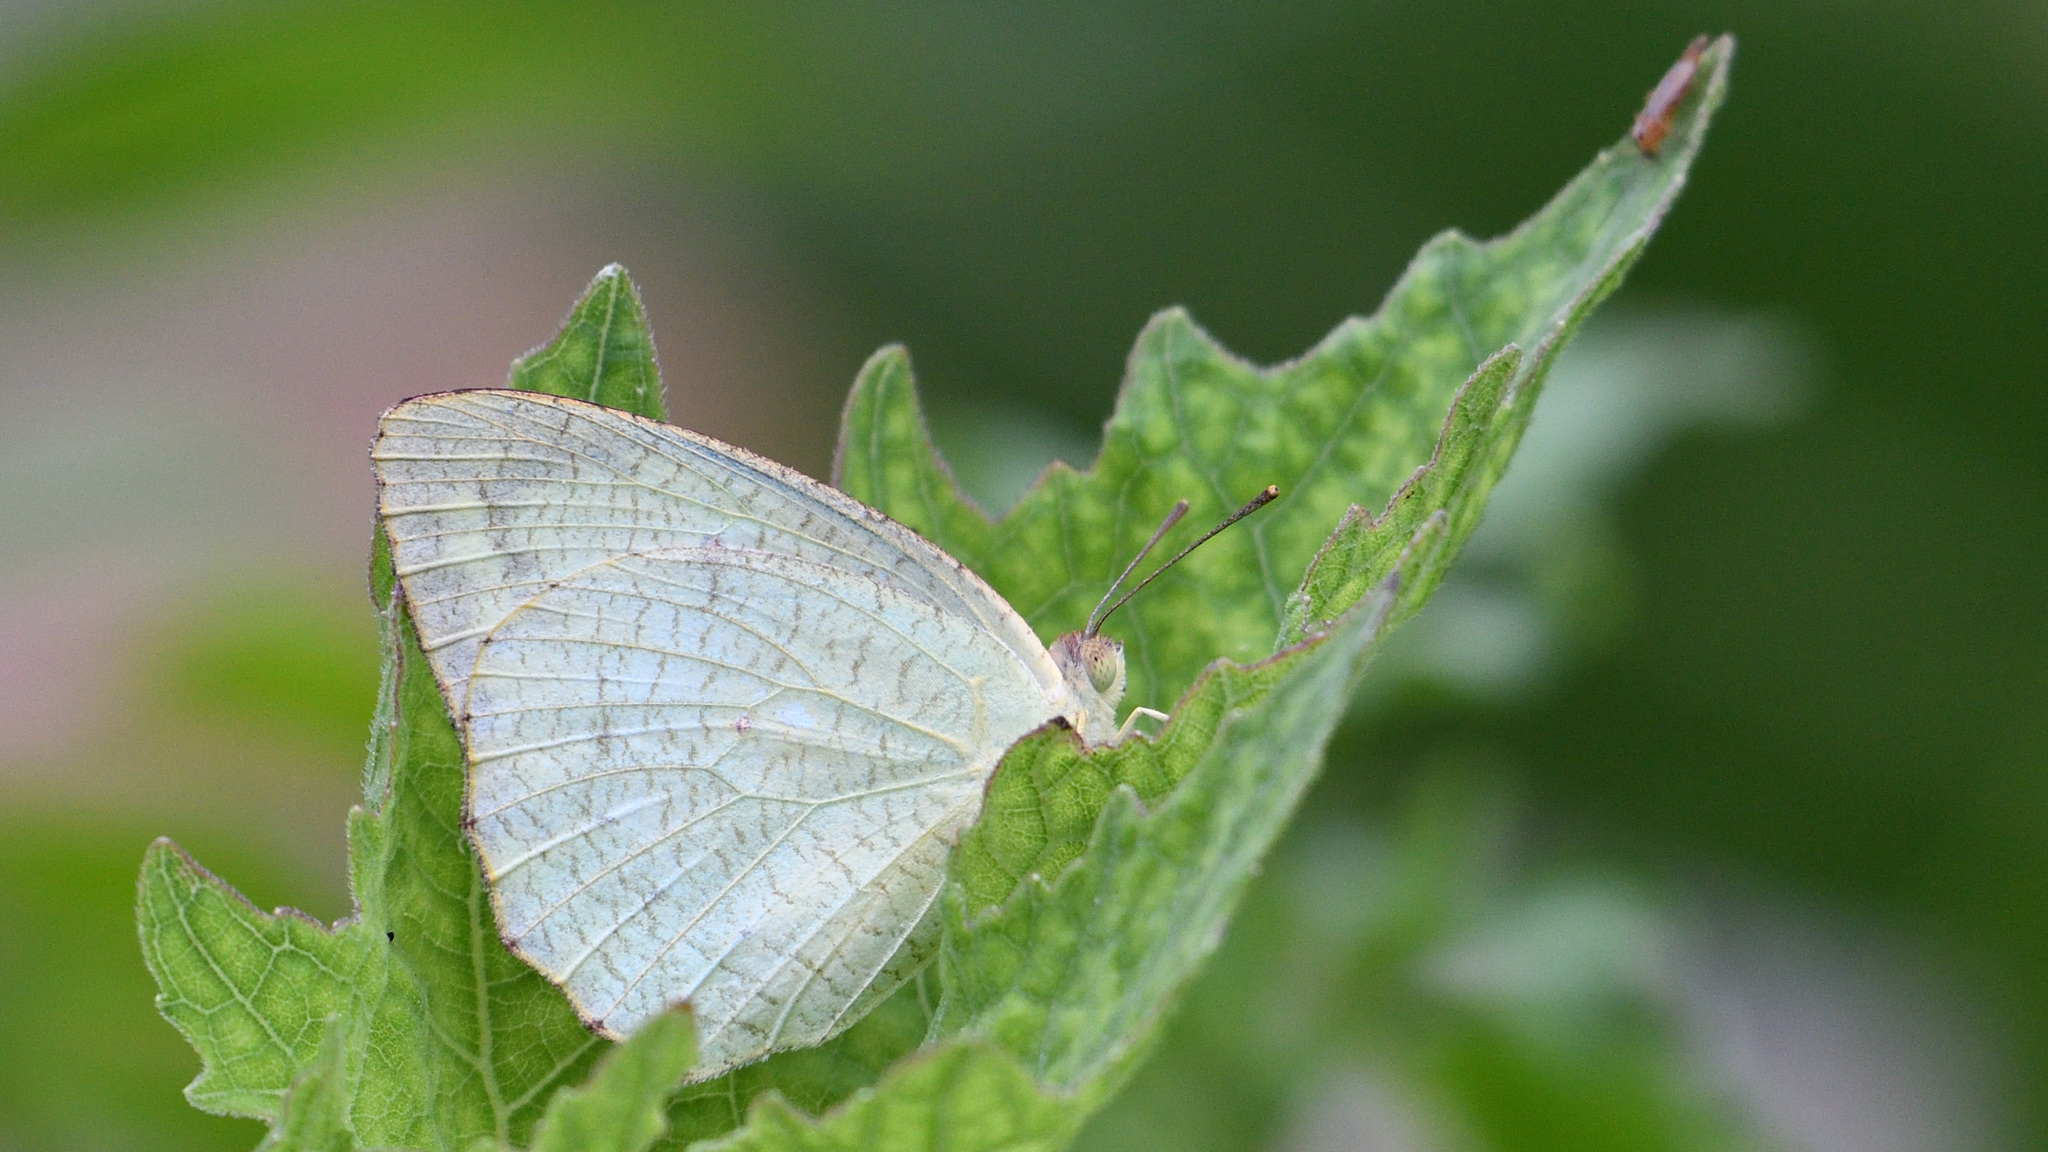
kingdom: Animalia
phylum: Arthropoda
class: Insecta
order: Lepidoptera
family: Pieridae
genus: Catopsilia
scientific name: Catopsilia pyranthe
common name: Mottled emigrant
